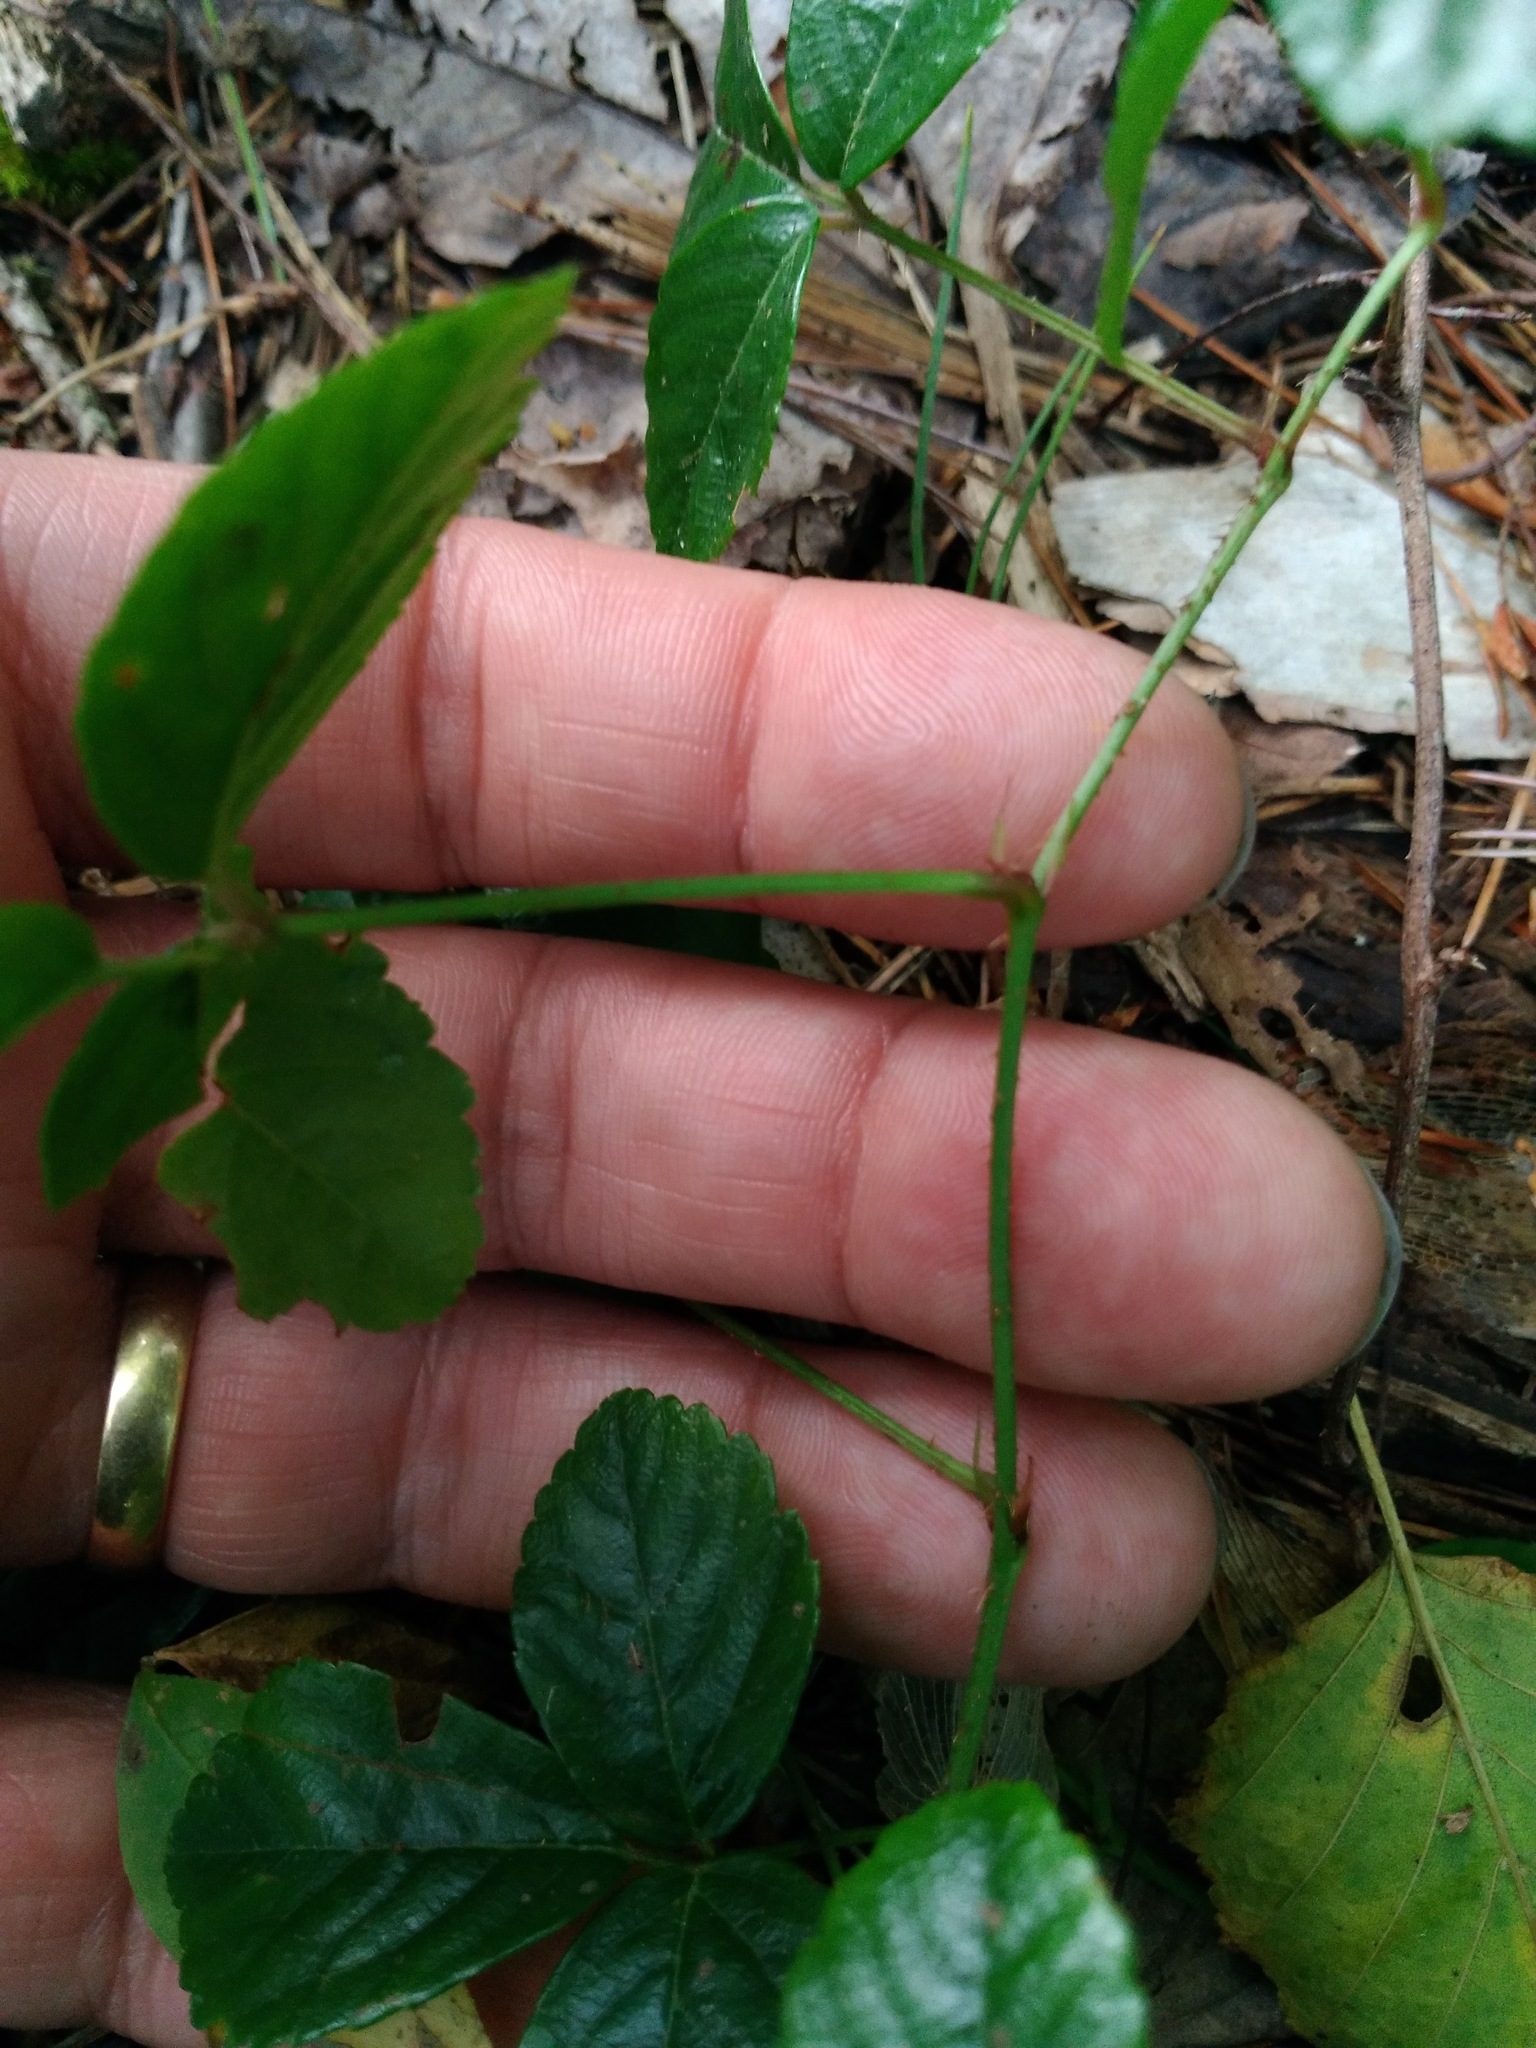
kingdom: Plantae
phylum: Tracheophyta
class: Magnoliopsida
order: Rosales
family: Rosaceae
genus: Rubus
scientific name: Rubus hispidus
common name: Running blackberry
